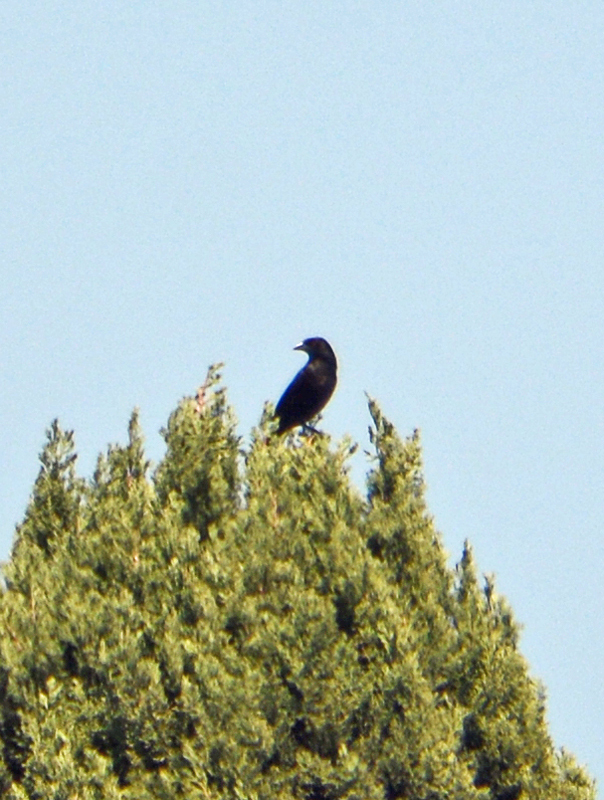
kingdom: Animalia
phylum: Chordata
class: Aves
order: Passeriformes
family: Icteridae
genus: Molothrus
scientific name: Molothrus aeneus
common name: Bronzed cowbird
